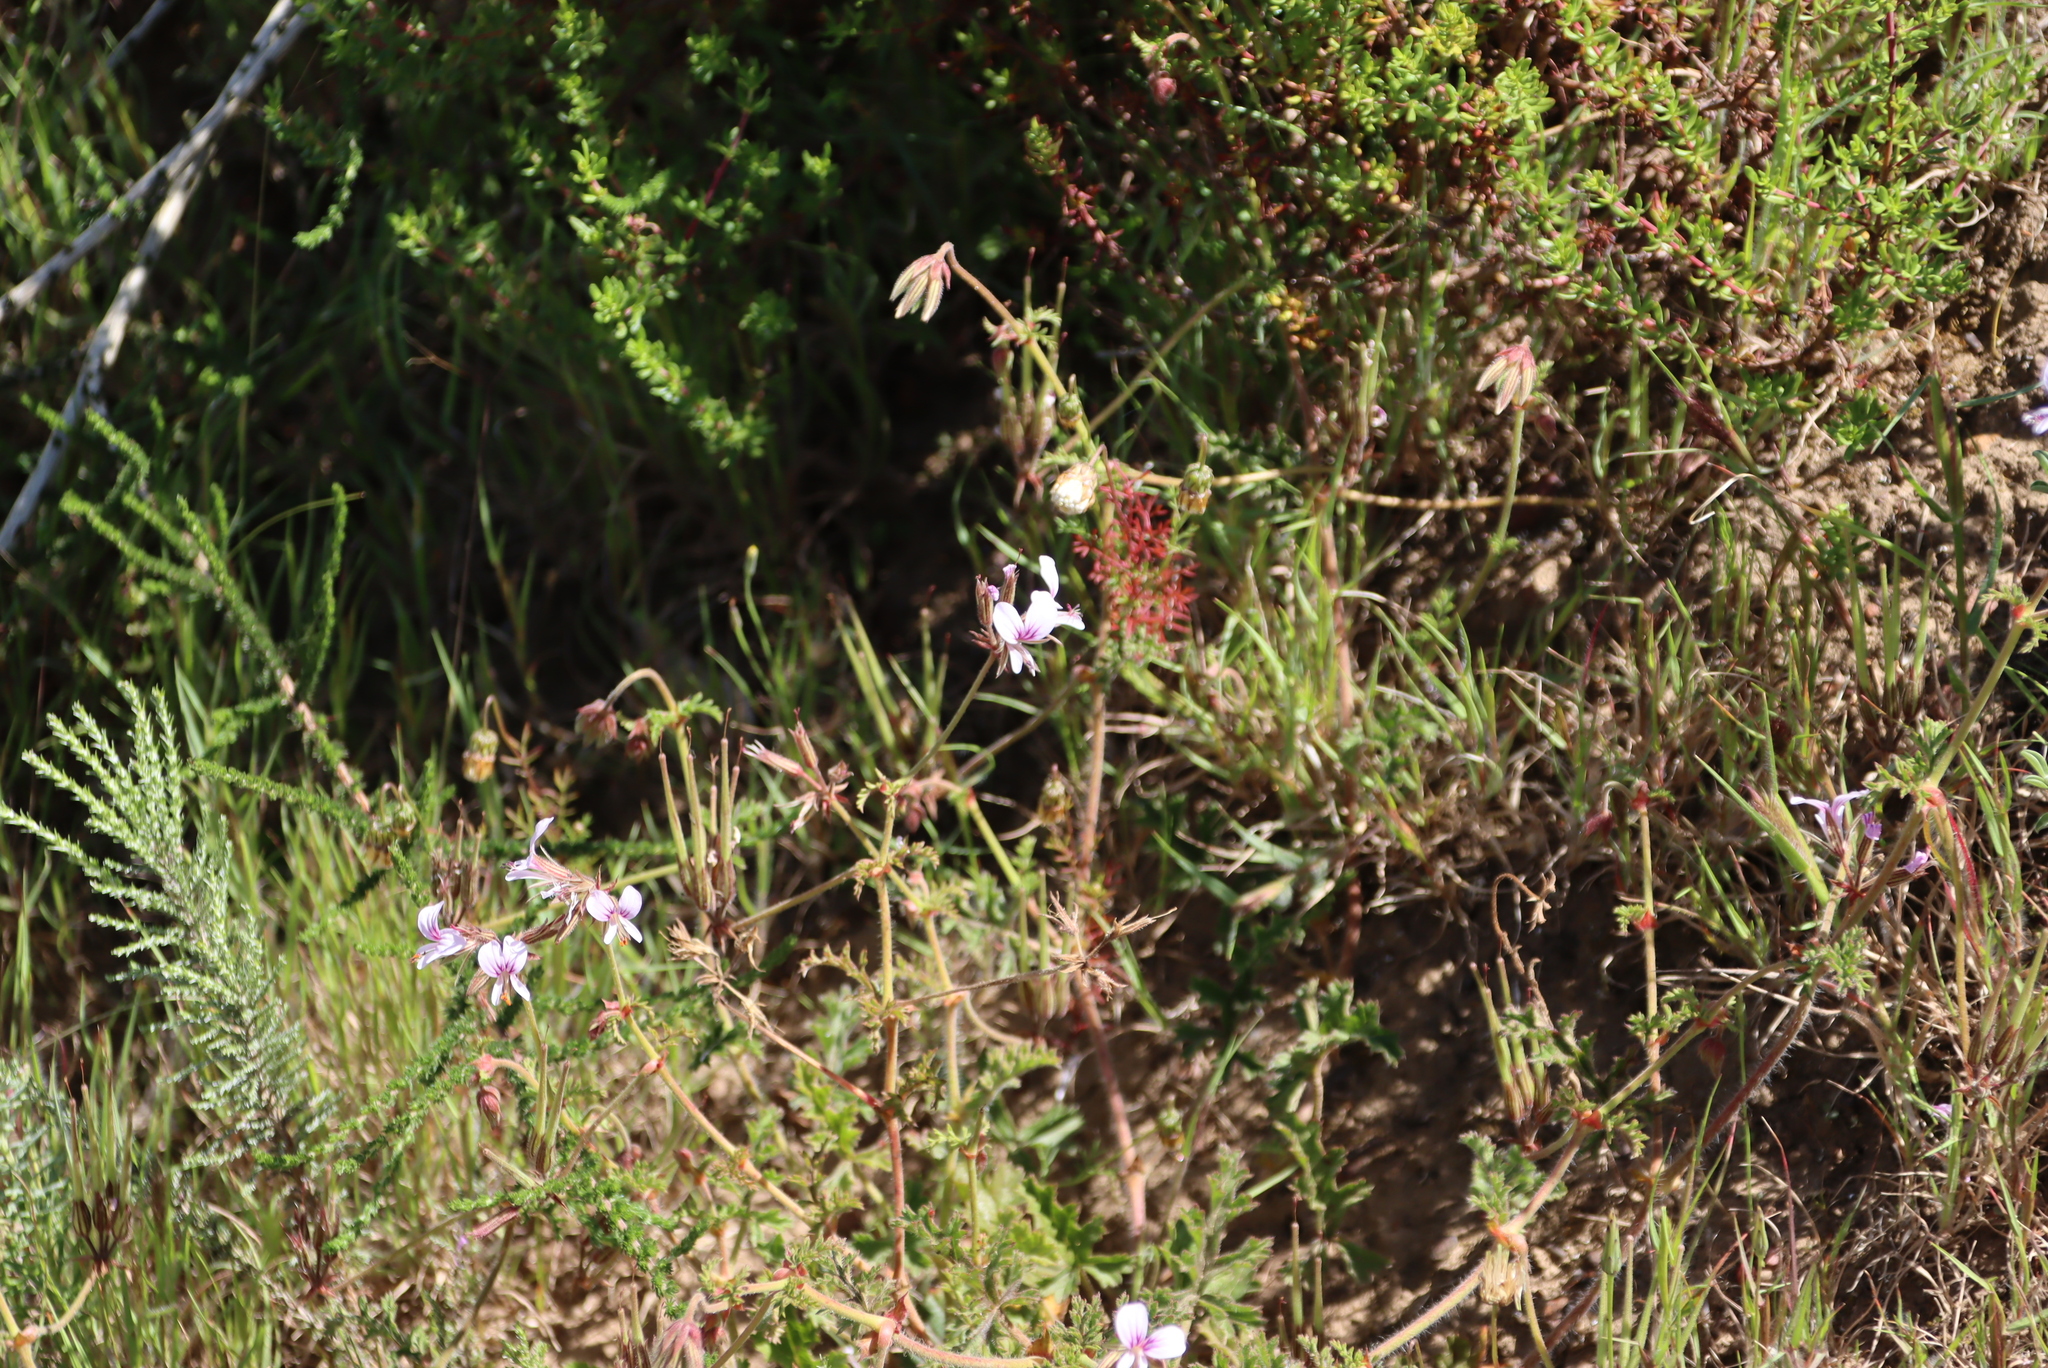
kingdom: Plantae
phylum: Tracheophyta
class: Magnoliopsida
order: Geraniales
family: Geraniaceae
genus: Pelargonium
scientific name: Pelargonium myrrhifolium
